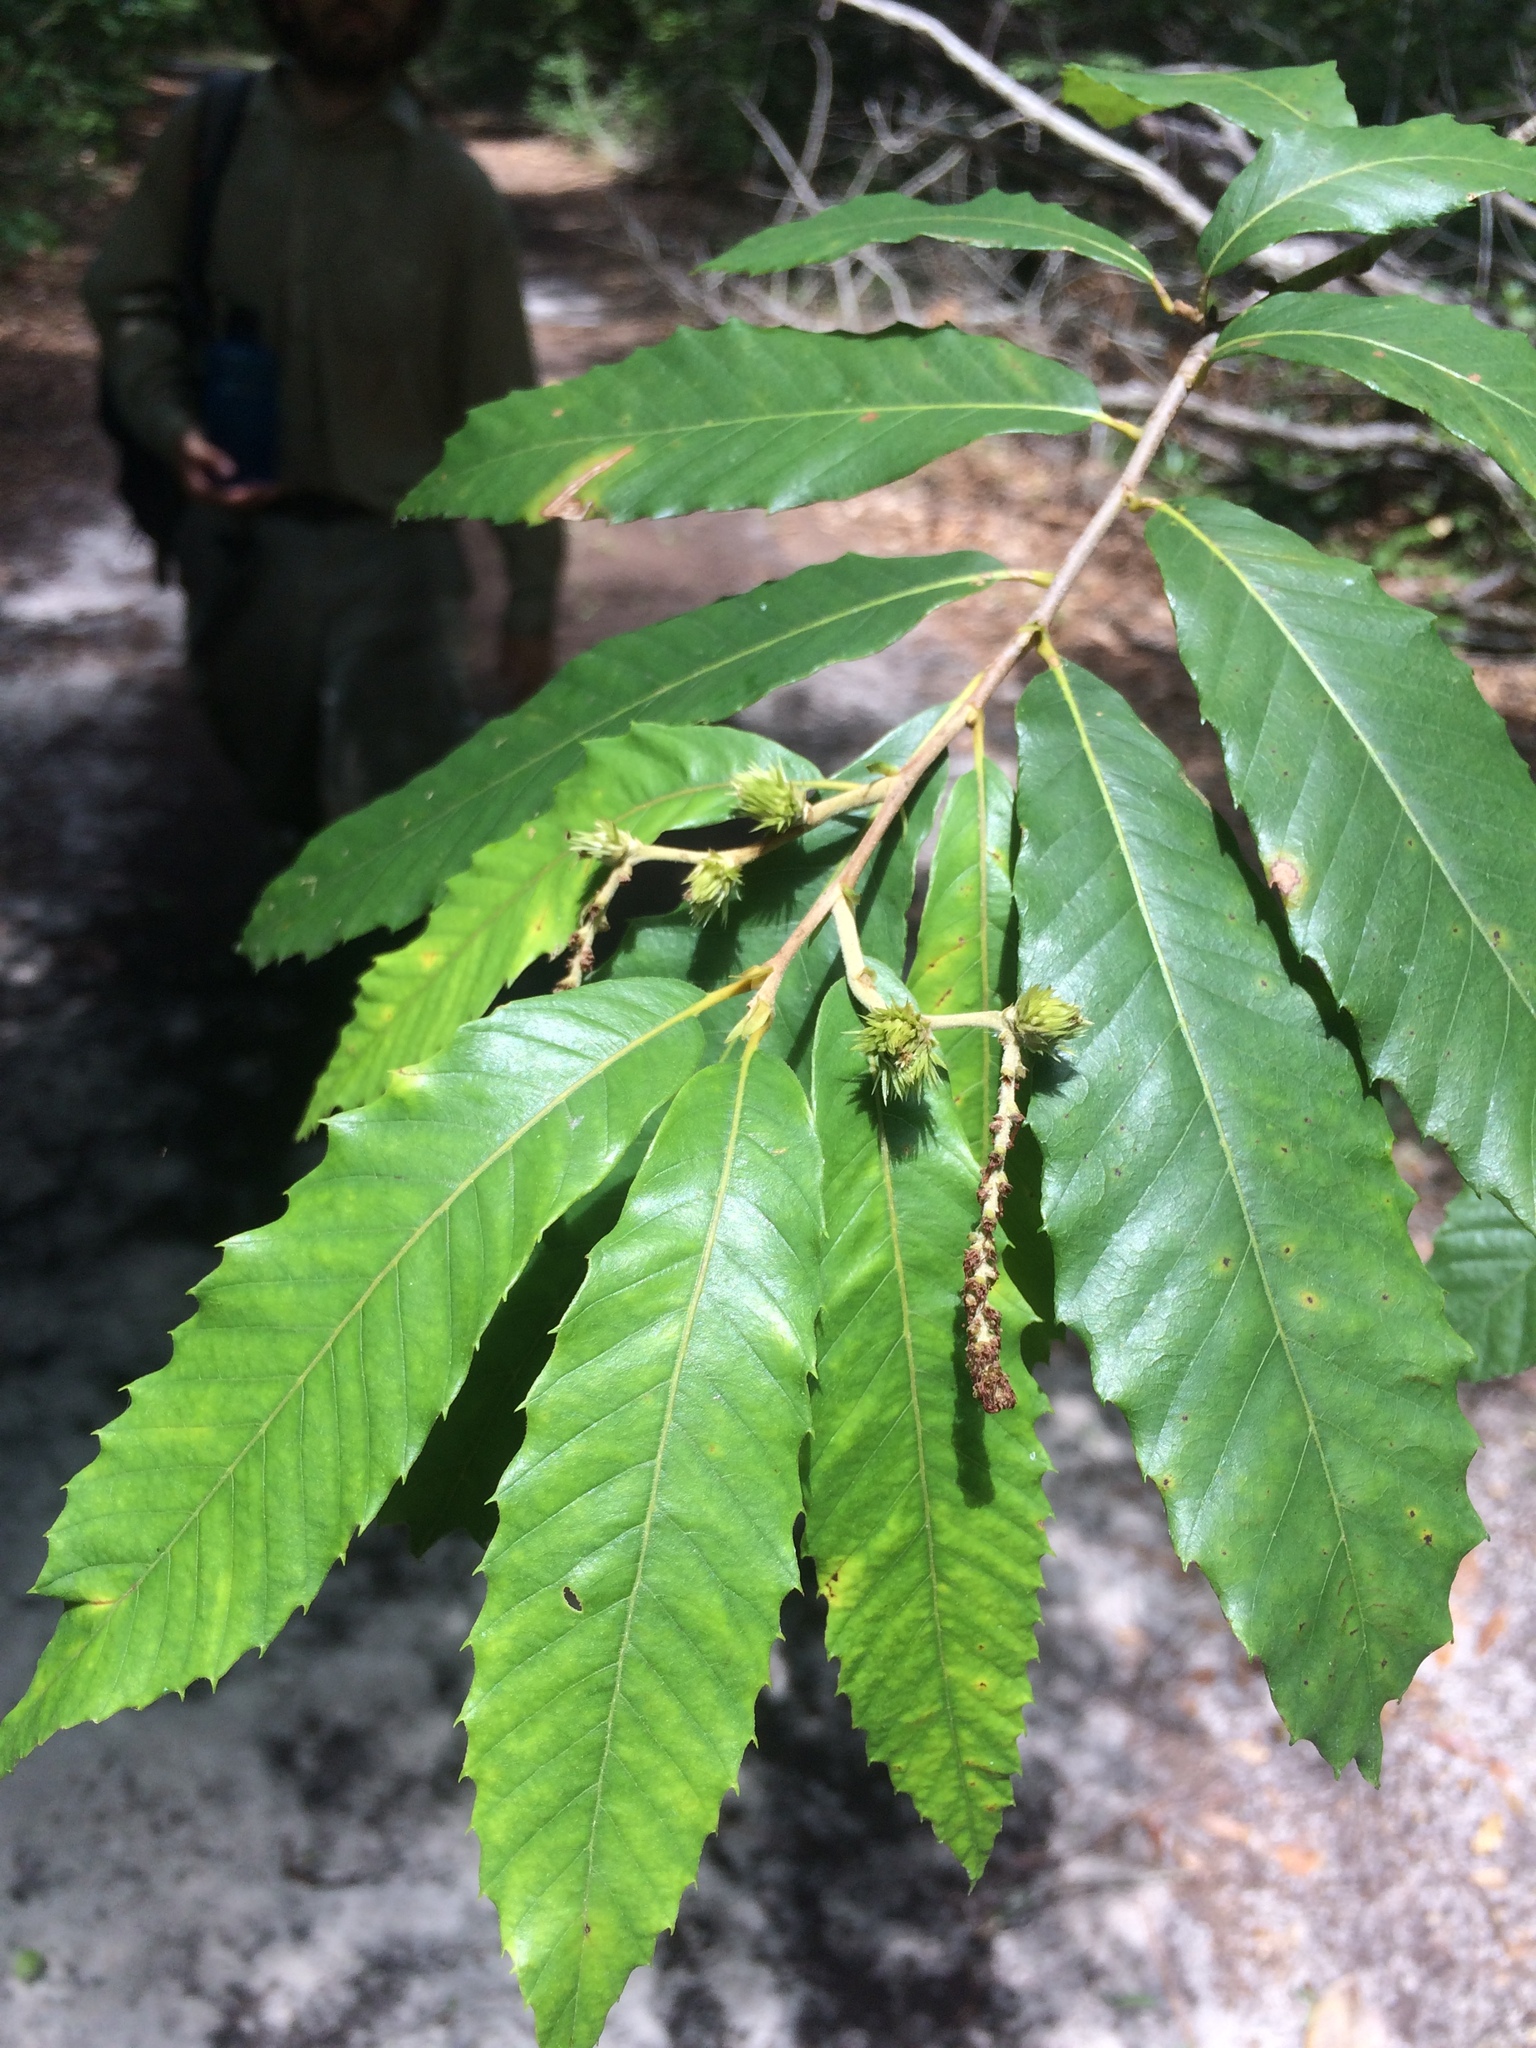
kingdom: Plantae
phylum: Tracheophyta
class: Magnoliopsida
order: Fagales
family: Fagaceae
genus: Castanea
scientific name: Castanea pumila
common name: Chinkapin
